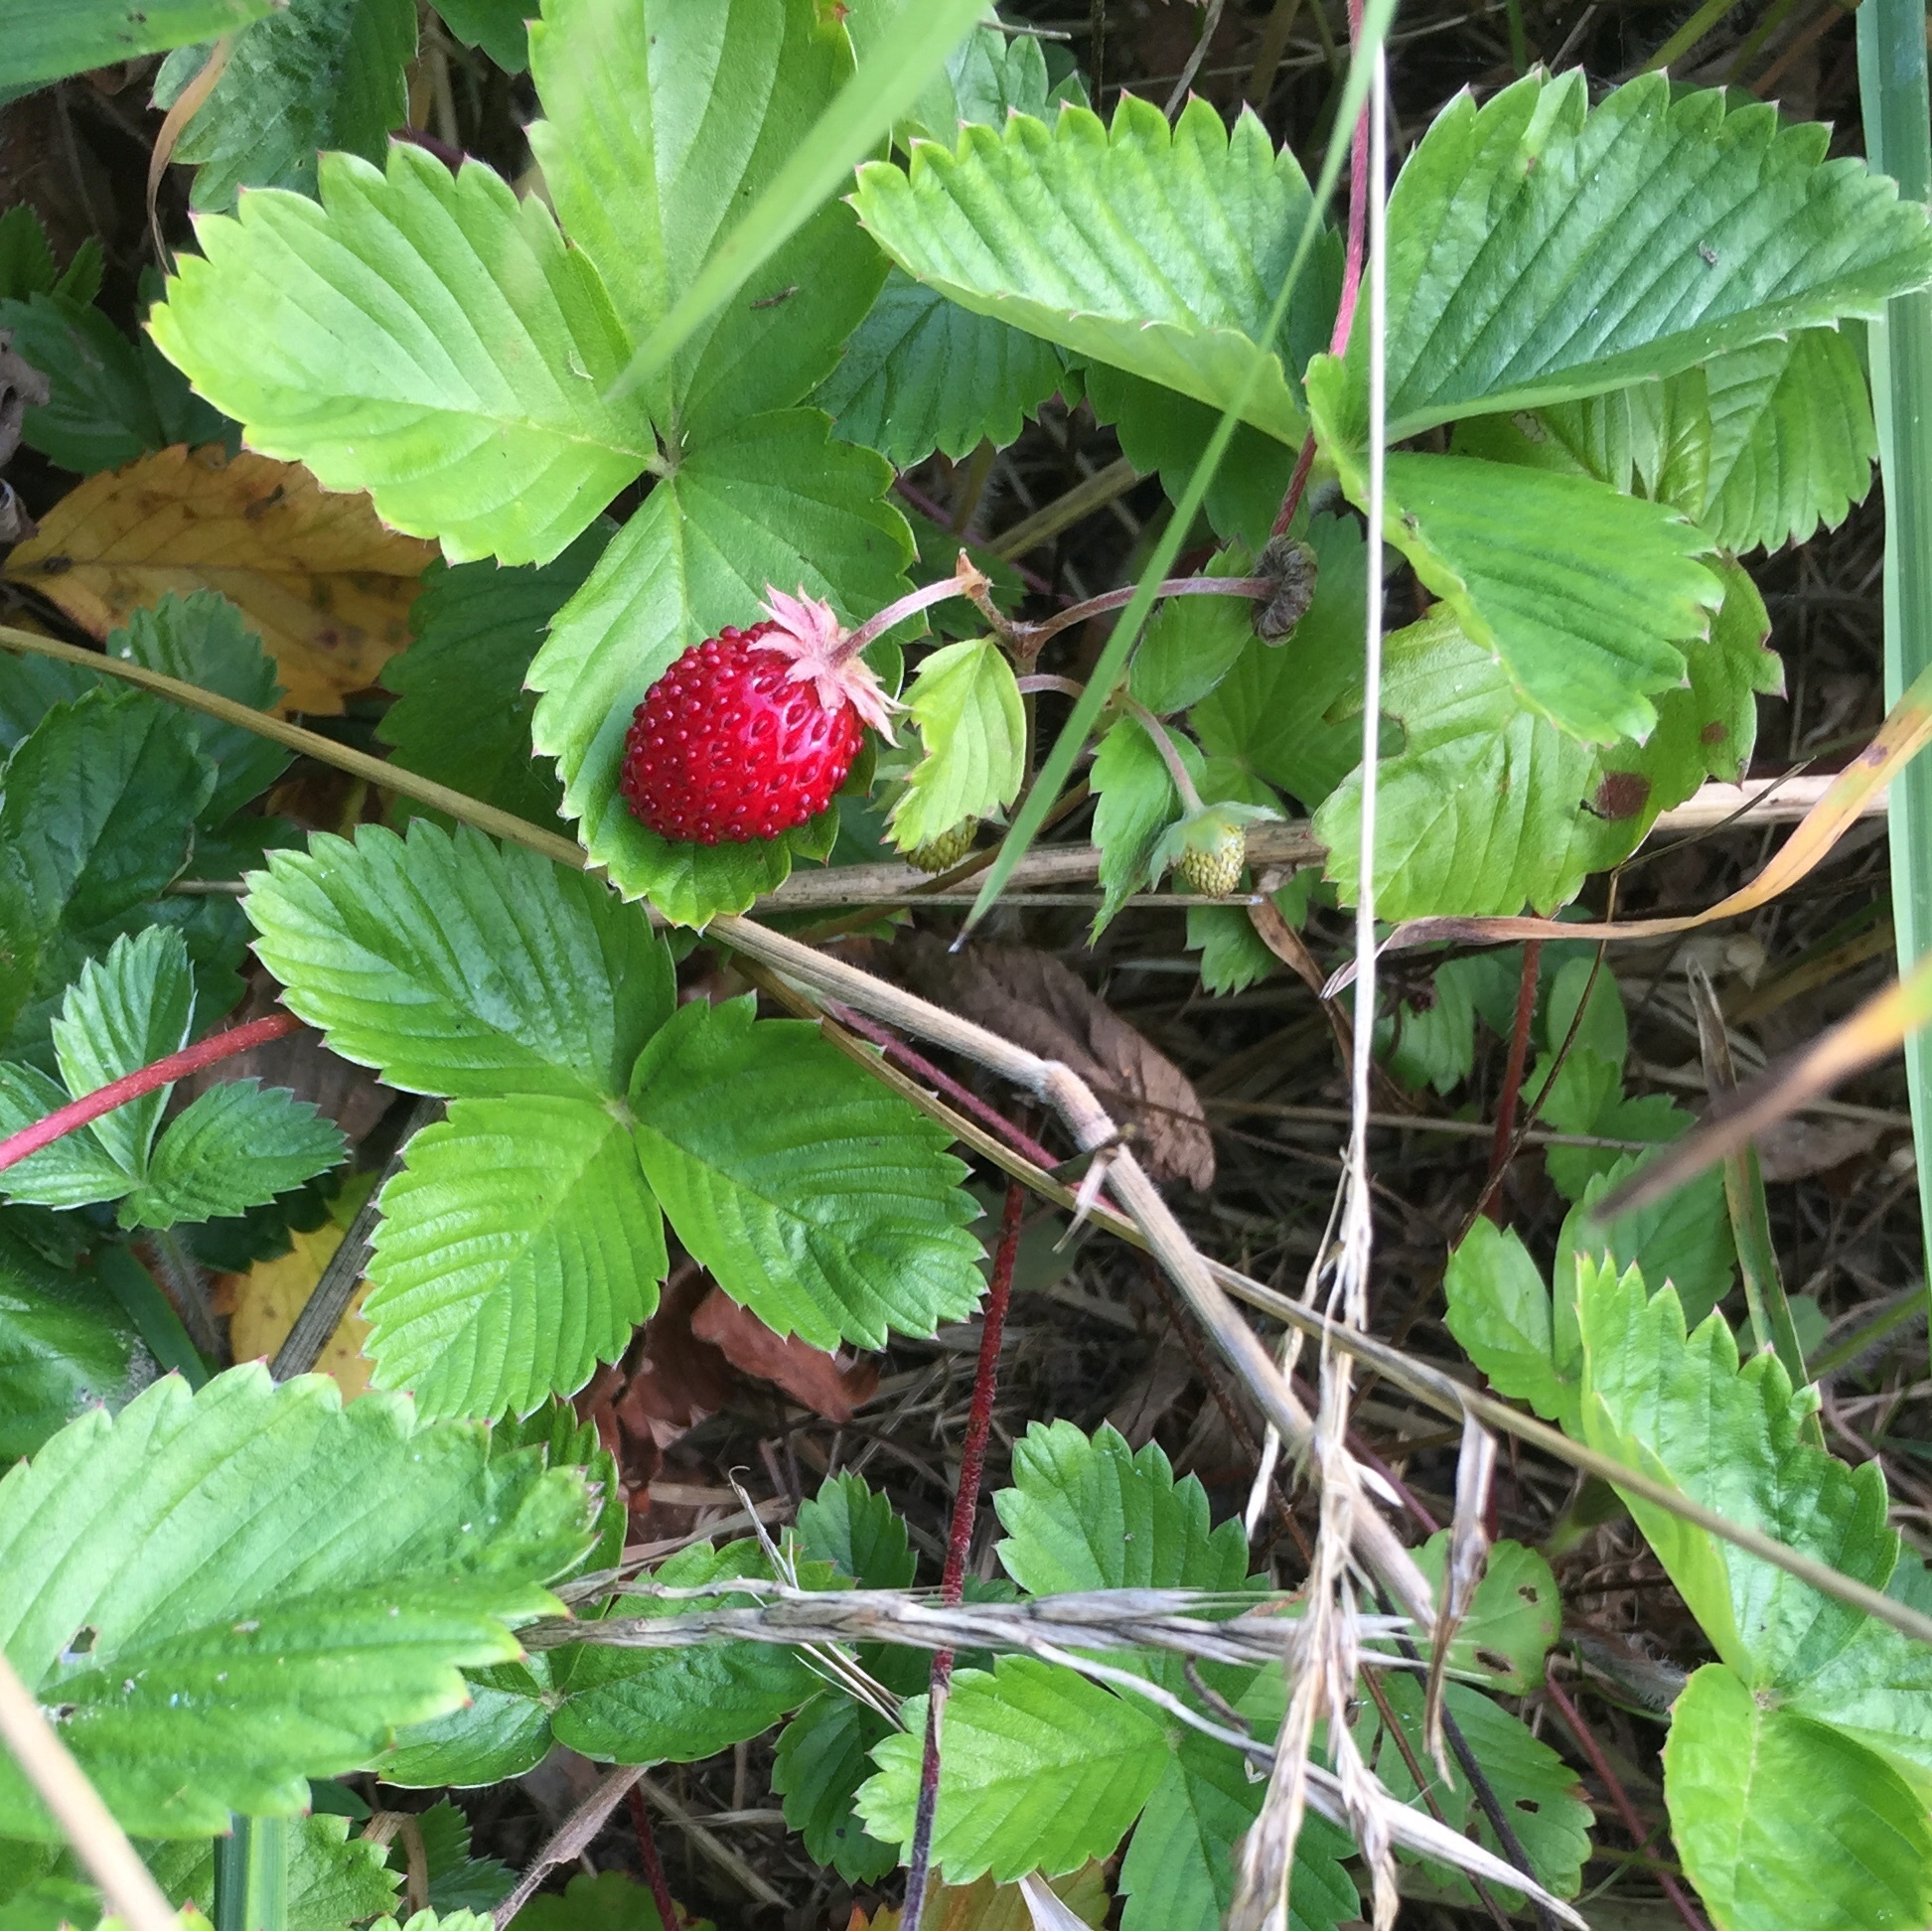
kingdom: Plantae
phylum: Tracheophyta
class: Magnoliopsida
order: Rosales
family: Rosaceae
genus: Fragaria
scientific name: Fragaria vesca
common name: Wild strawberry
